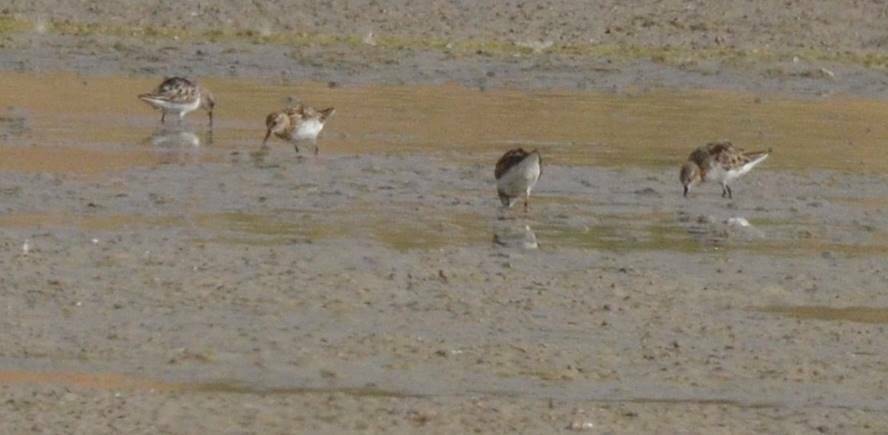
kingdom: Animalia
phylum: Chordata
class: Aves
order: Charadriiformes
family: Scolopacidae
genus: Calidris
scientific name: Calidris minuta
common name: Little stint
